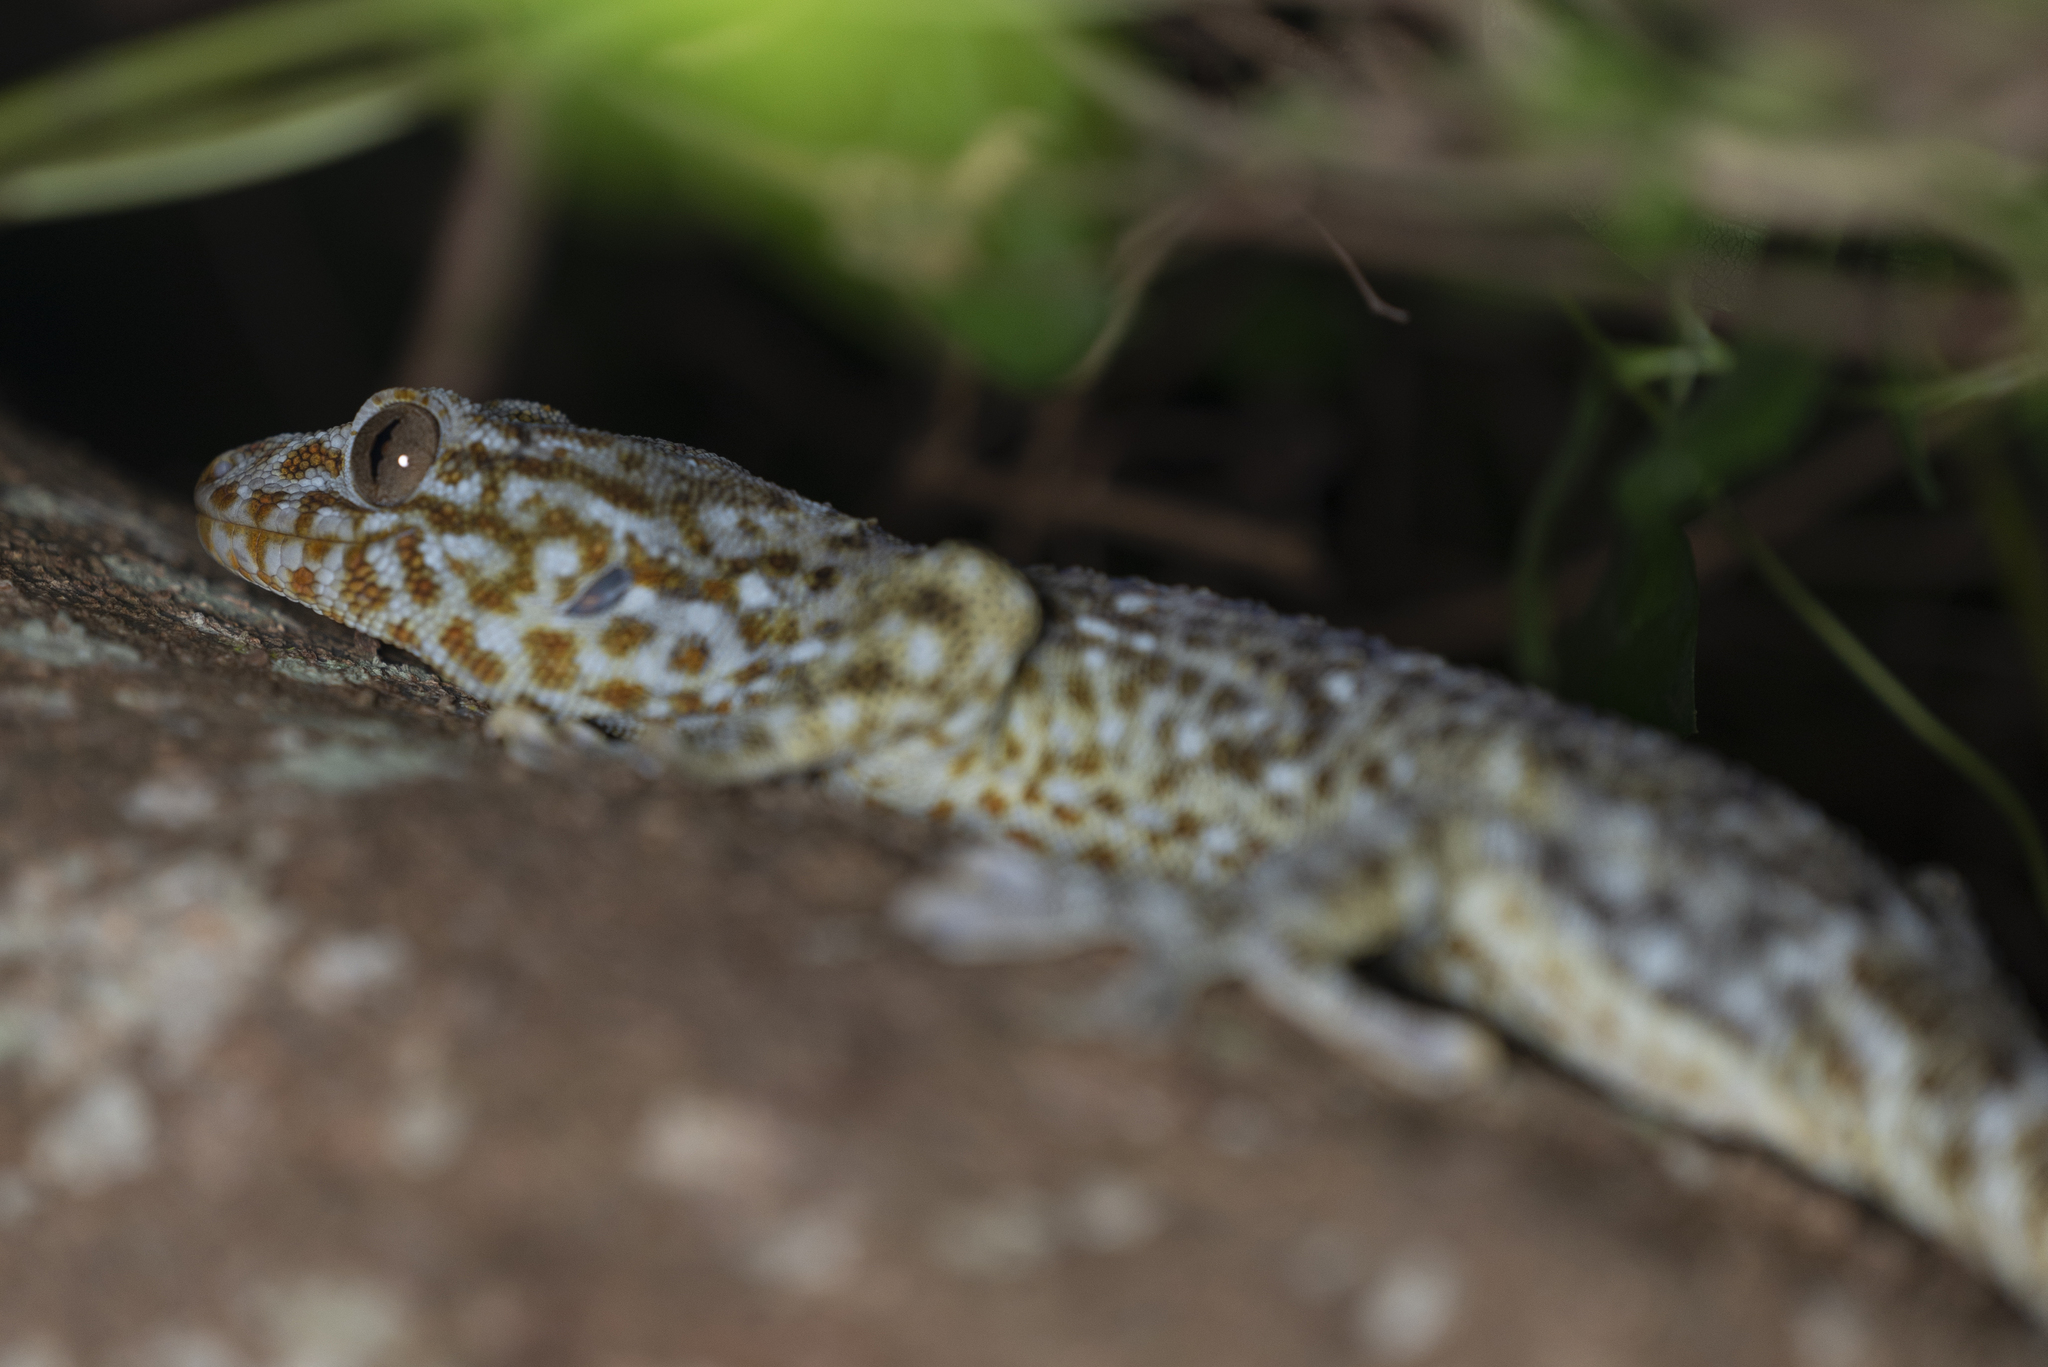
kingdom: Animalia
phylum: Chordata
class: Squamata
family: Gekkonidae
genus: Gekko
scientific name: Gekko gecko
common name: Tokay gecko
